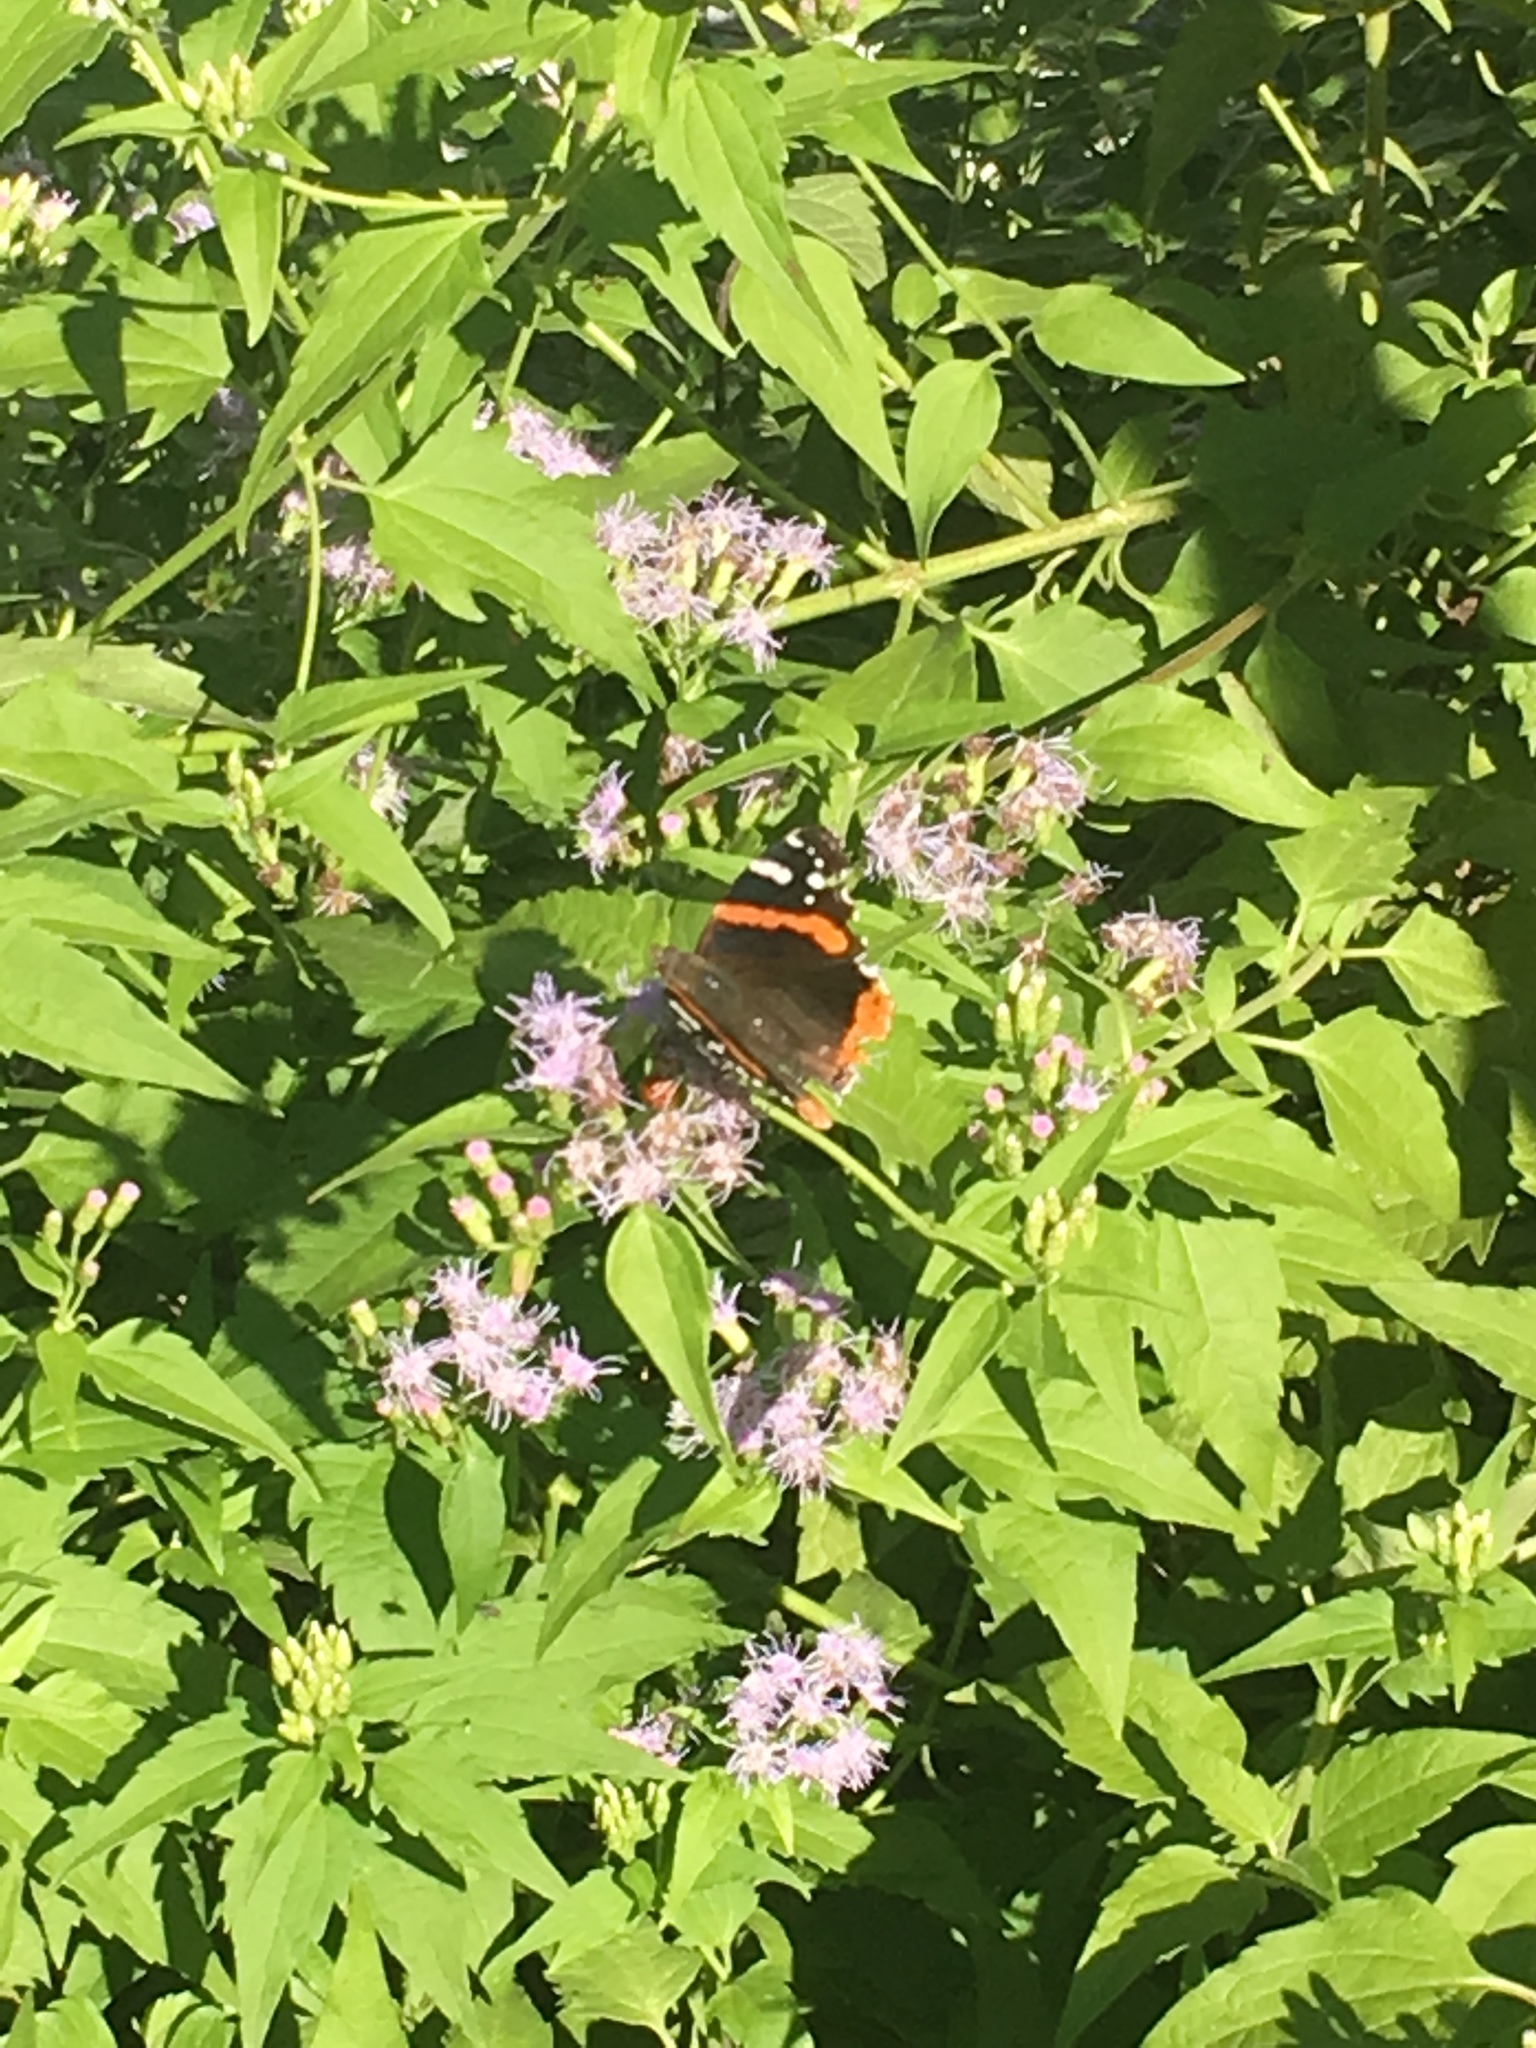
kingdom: Animalia
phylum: Arthropoda
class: Insecta
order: Lepidoptera
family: Nymphalidae
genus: Vanessa
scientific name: Vanessa atalanta
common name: Red admiral
